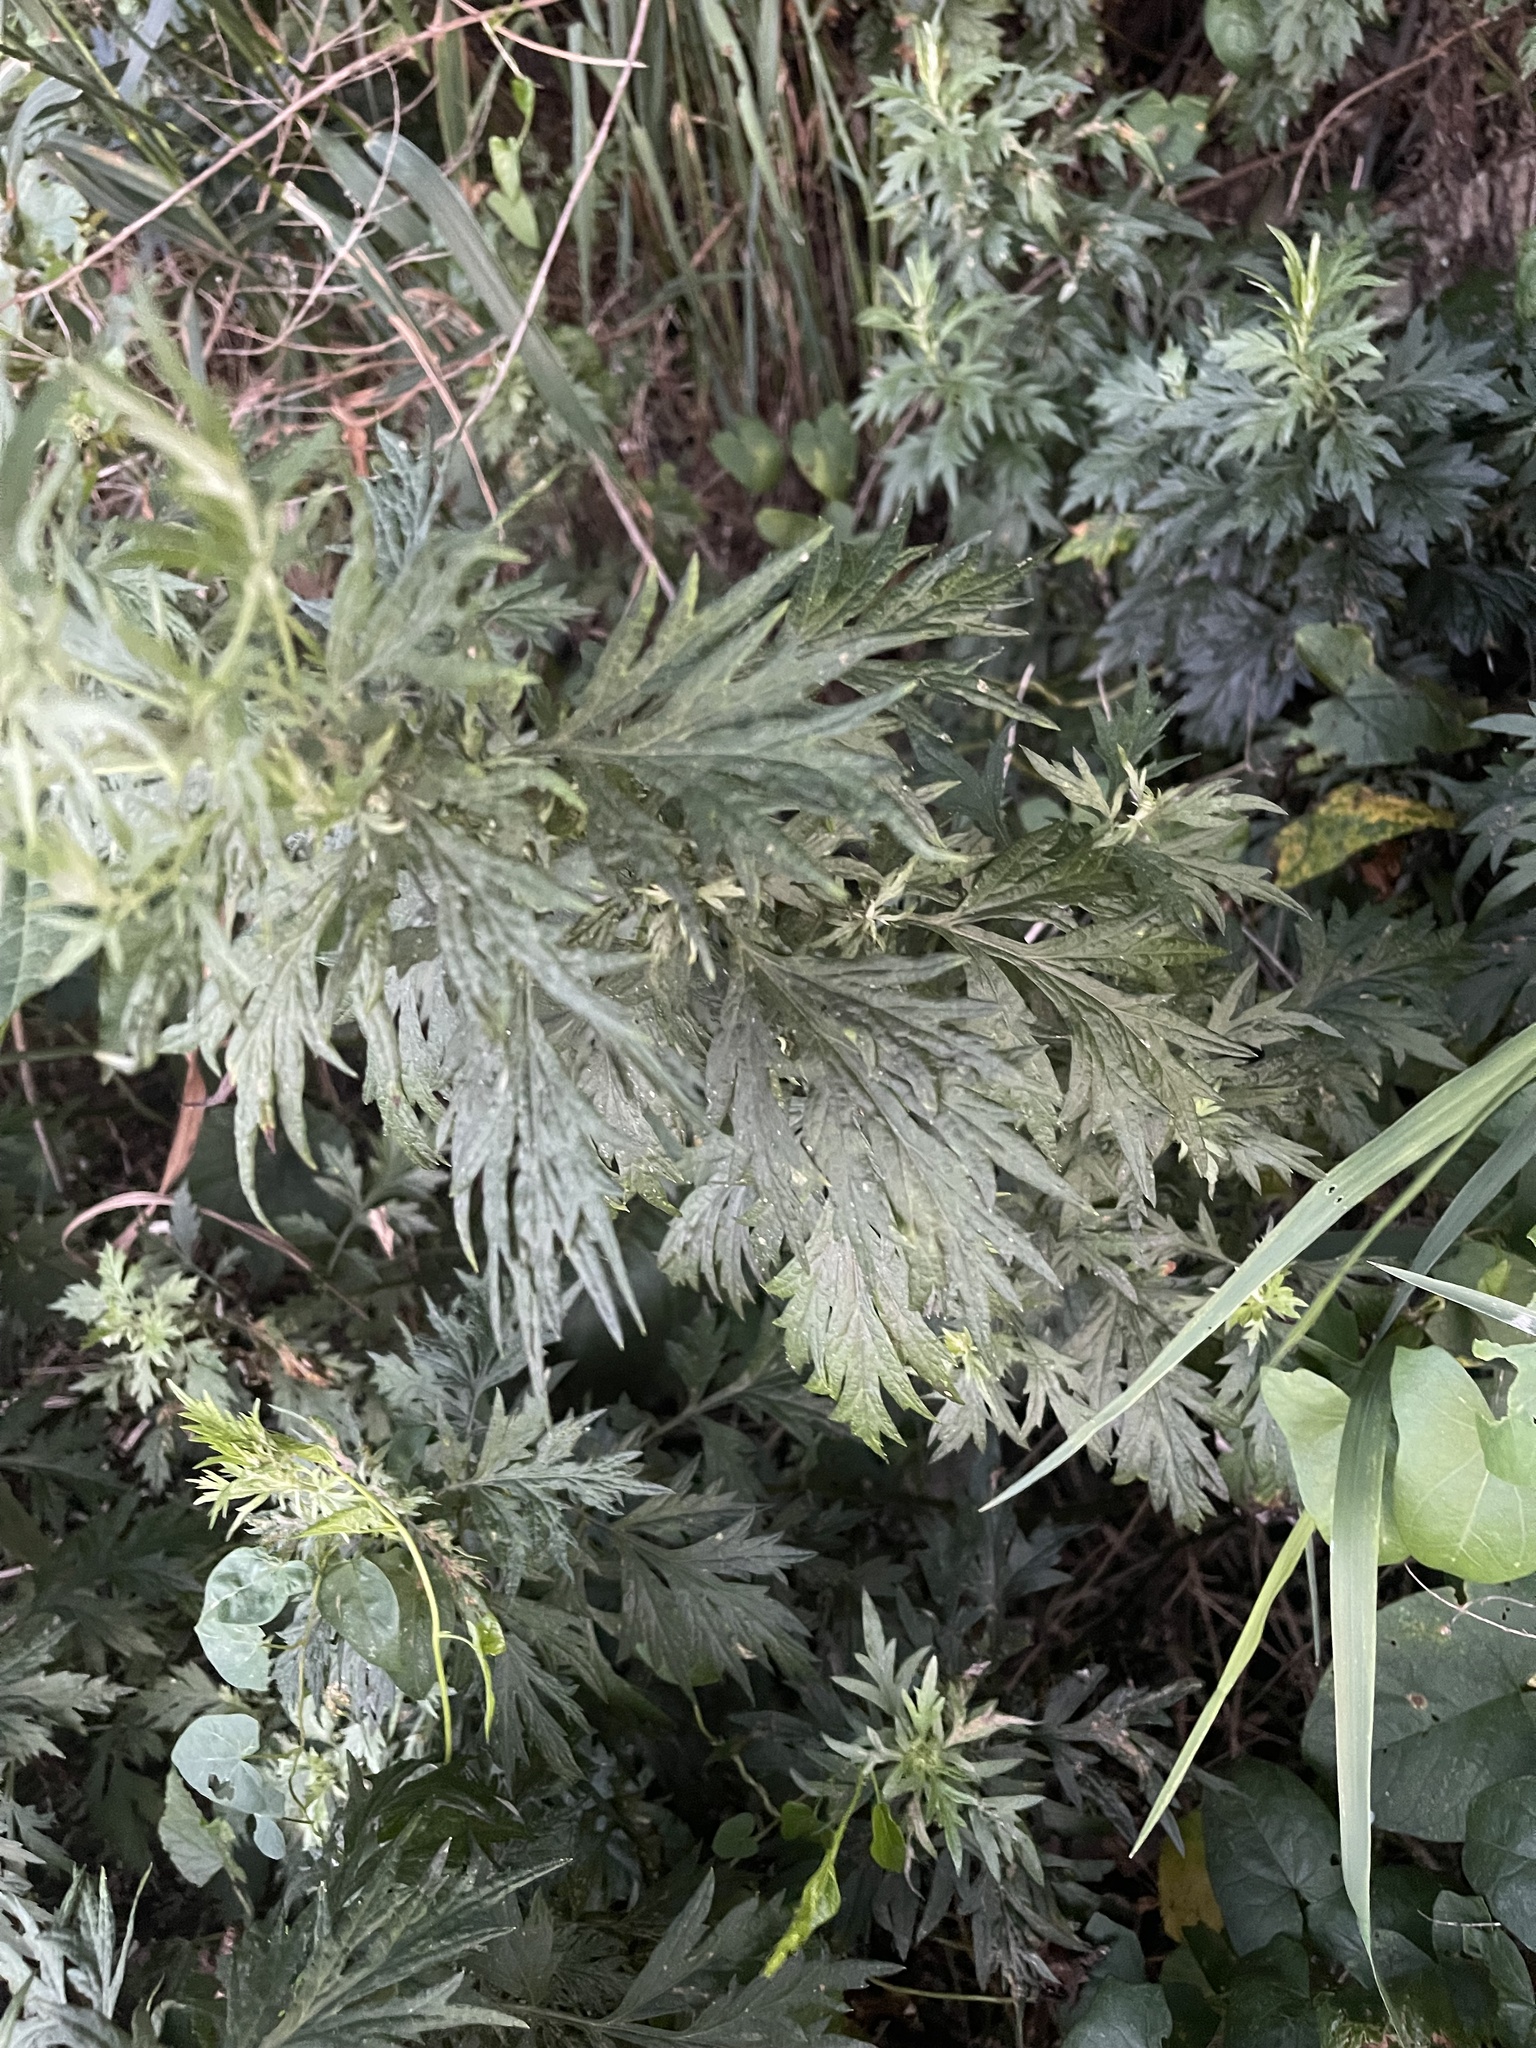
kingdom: Plantae
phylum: Tracheophyta
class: Magnoliopsida
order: Asterales
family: Asteraceae
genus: Artemisia
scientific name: Artemisia vulgaris
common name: Mugwort
